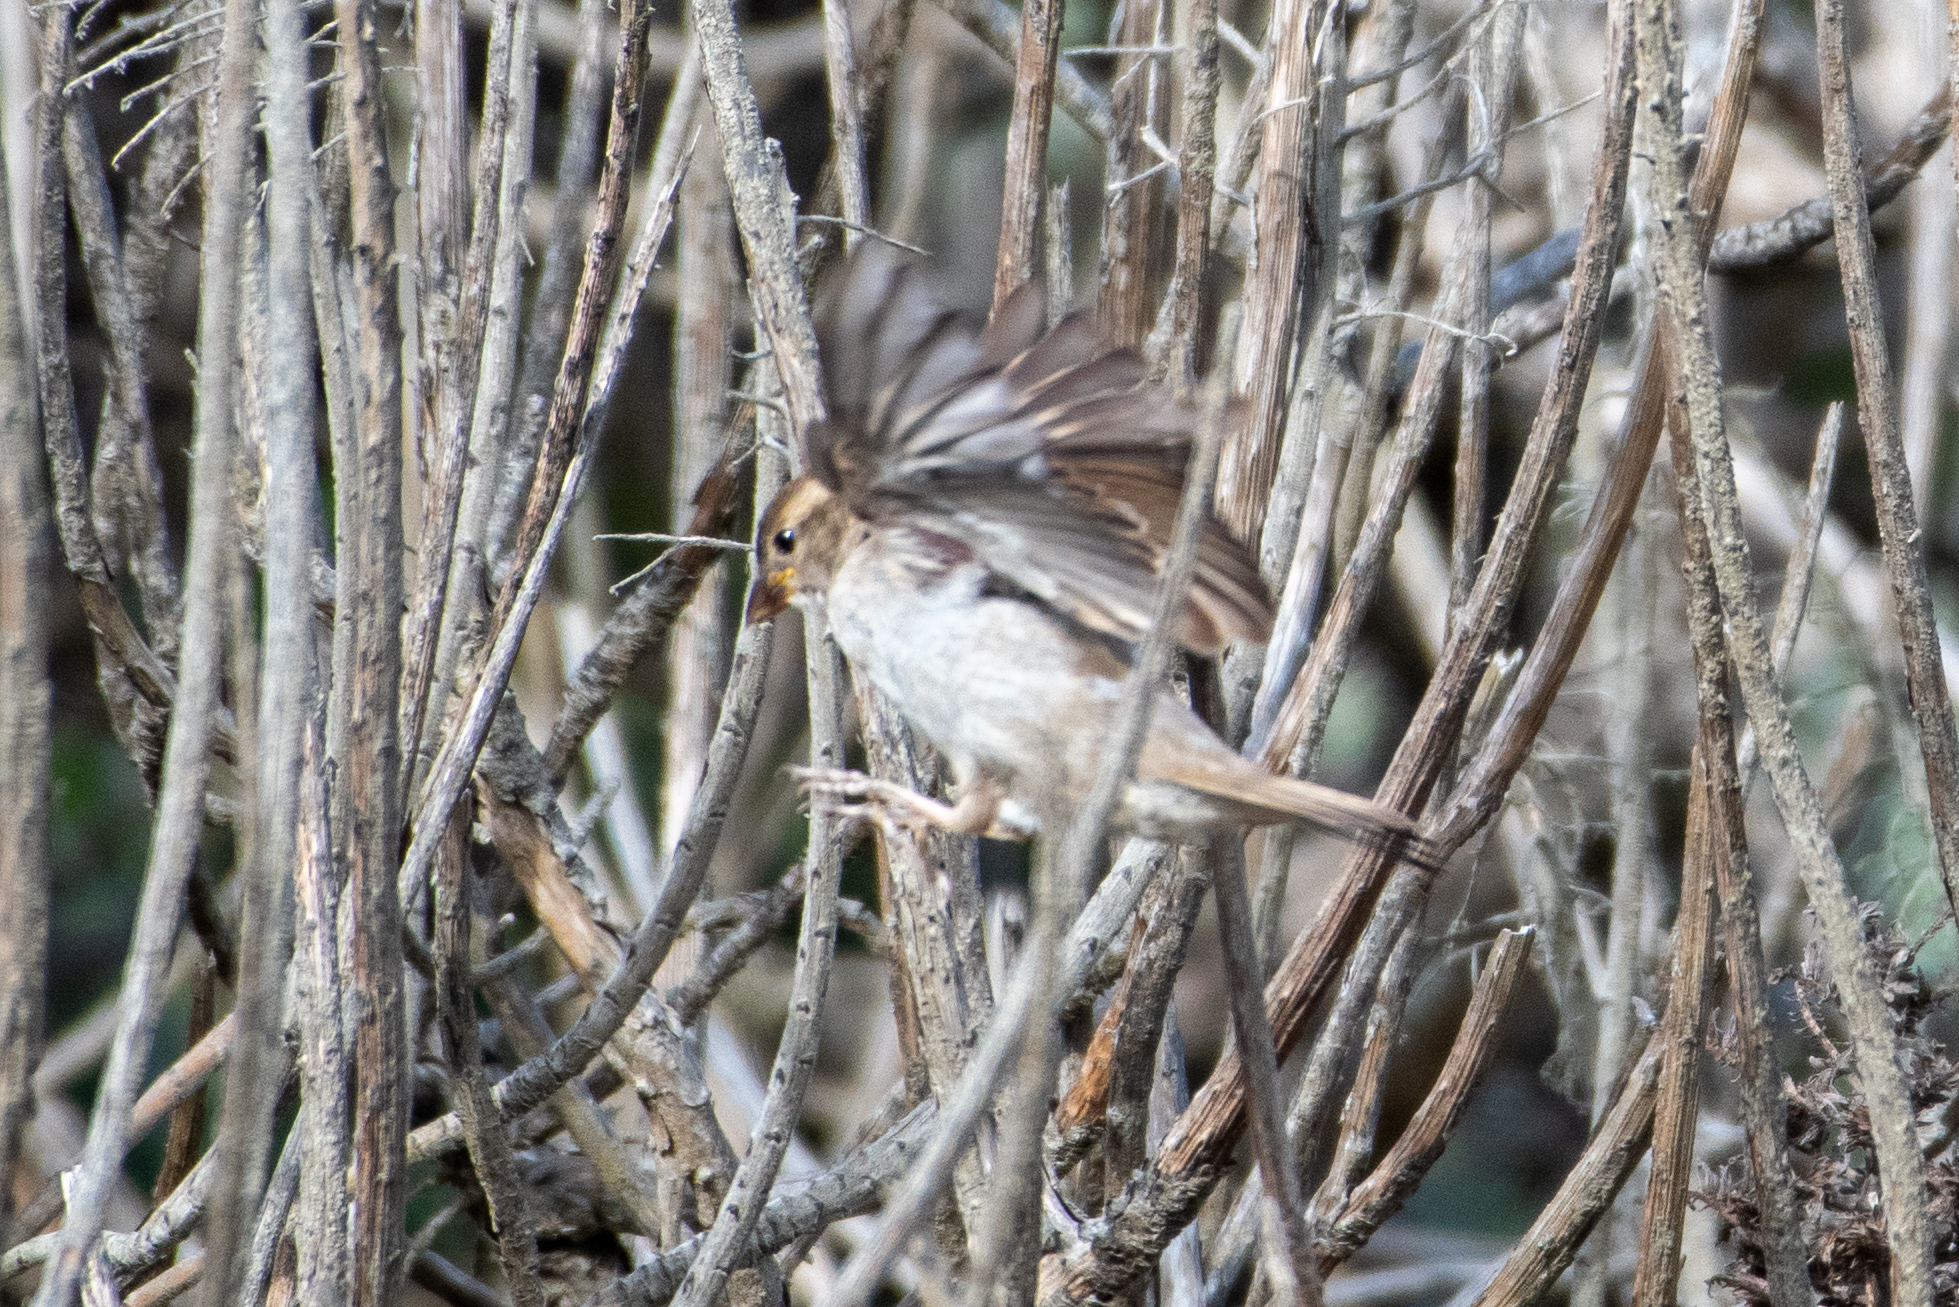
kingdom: Animalia
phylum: Chordata
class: Aves
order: Passeriformes
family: Passeridae
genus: Passer
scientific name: Passer domesticus
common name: House sparrow
